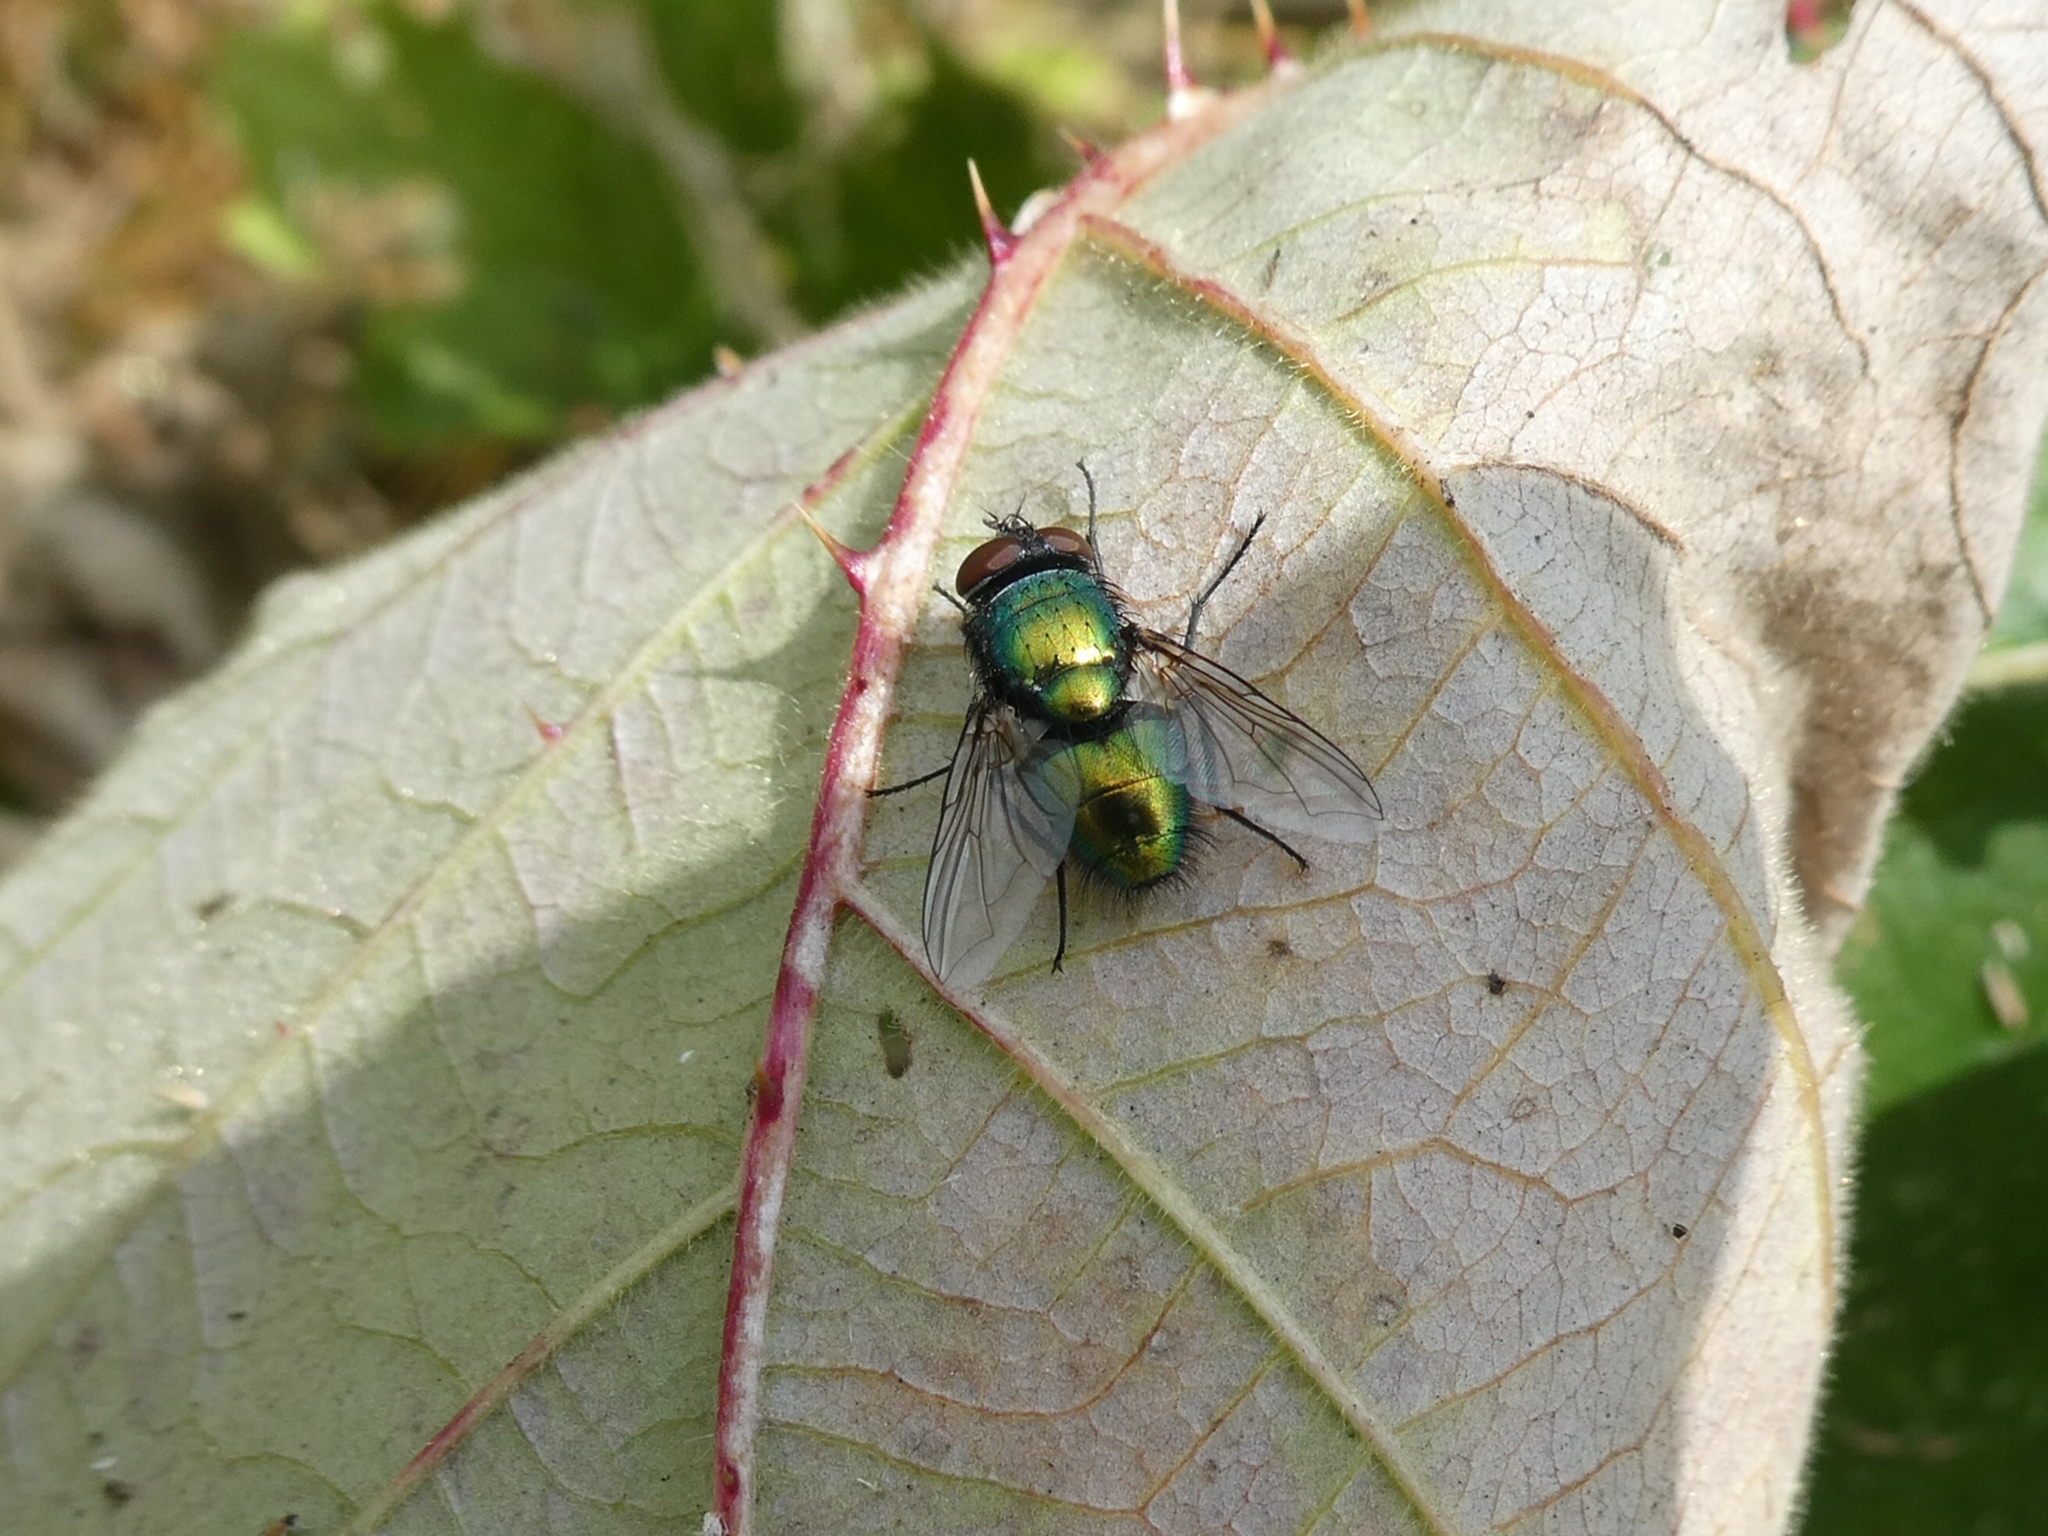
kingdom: Animalia
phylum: Arthropoda
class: Insecta
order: Diptera
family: Calliphoridae
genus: Lucilia
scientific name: Lucilia
